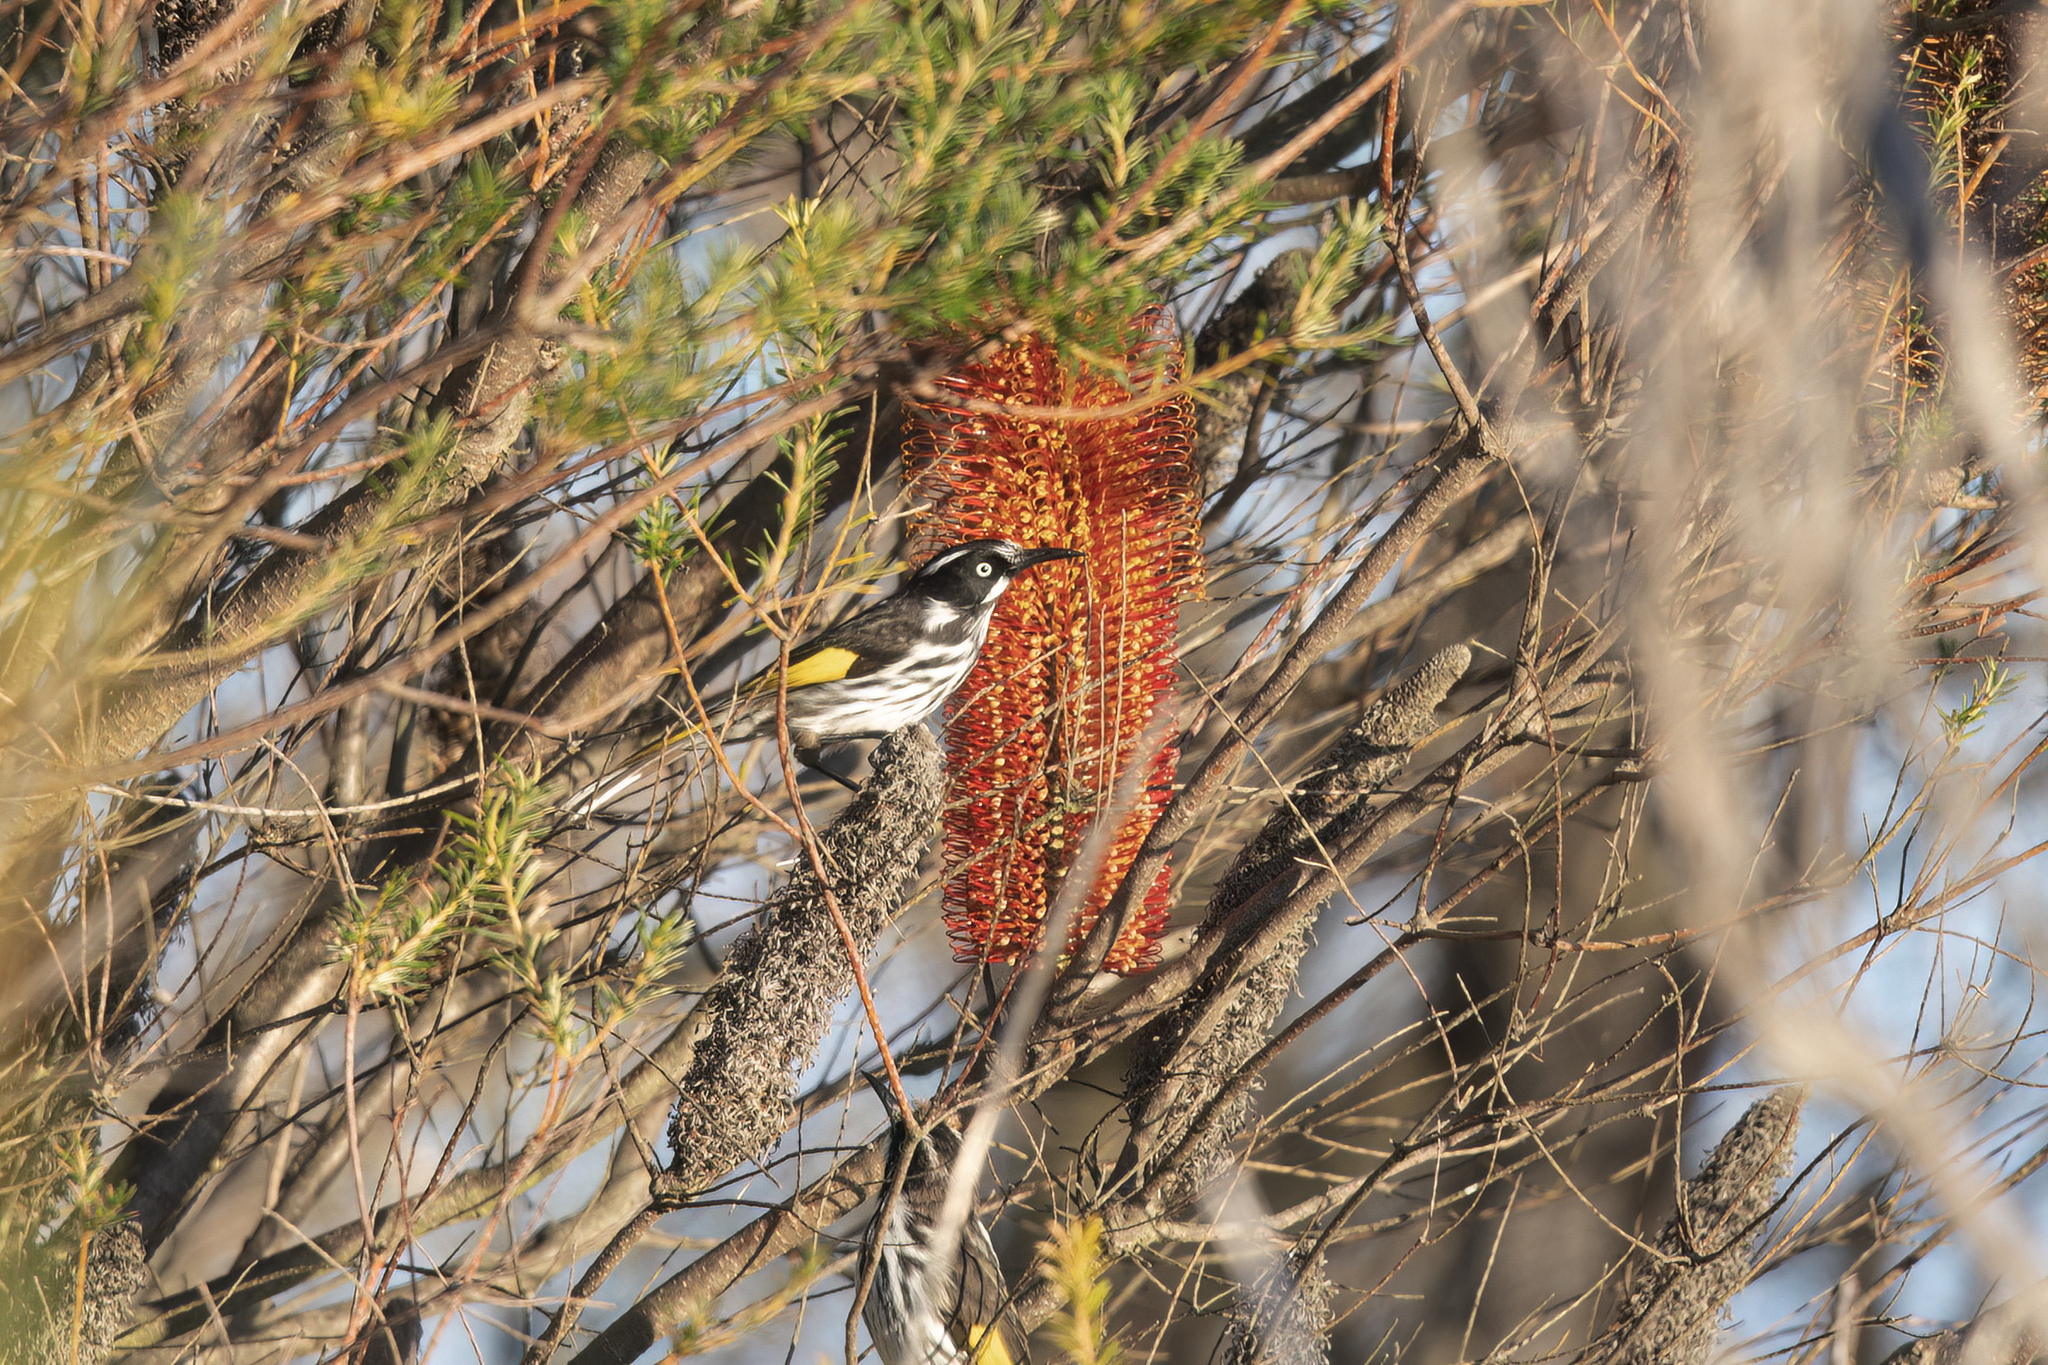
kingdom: Animalia
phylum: Chordata
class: Aves
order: Passeriformes
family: Meliphagidae
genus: Phylidonyris
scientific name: Phylidonyris novaehollandiae
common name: New holland honeyeater
